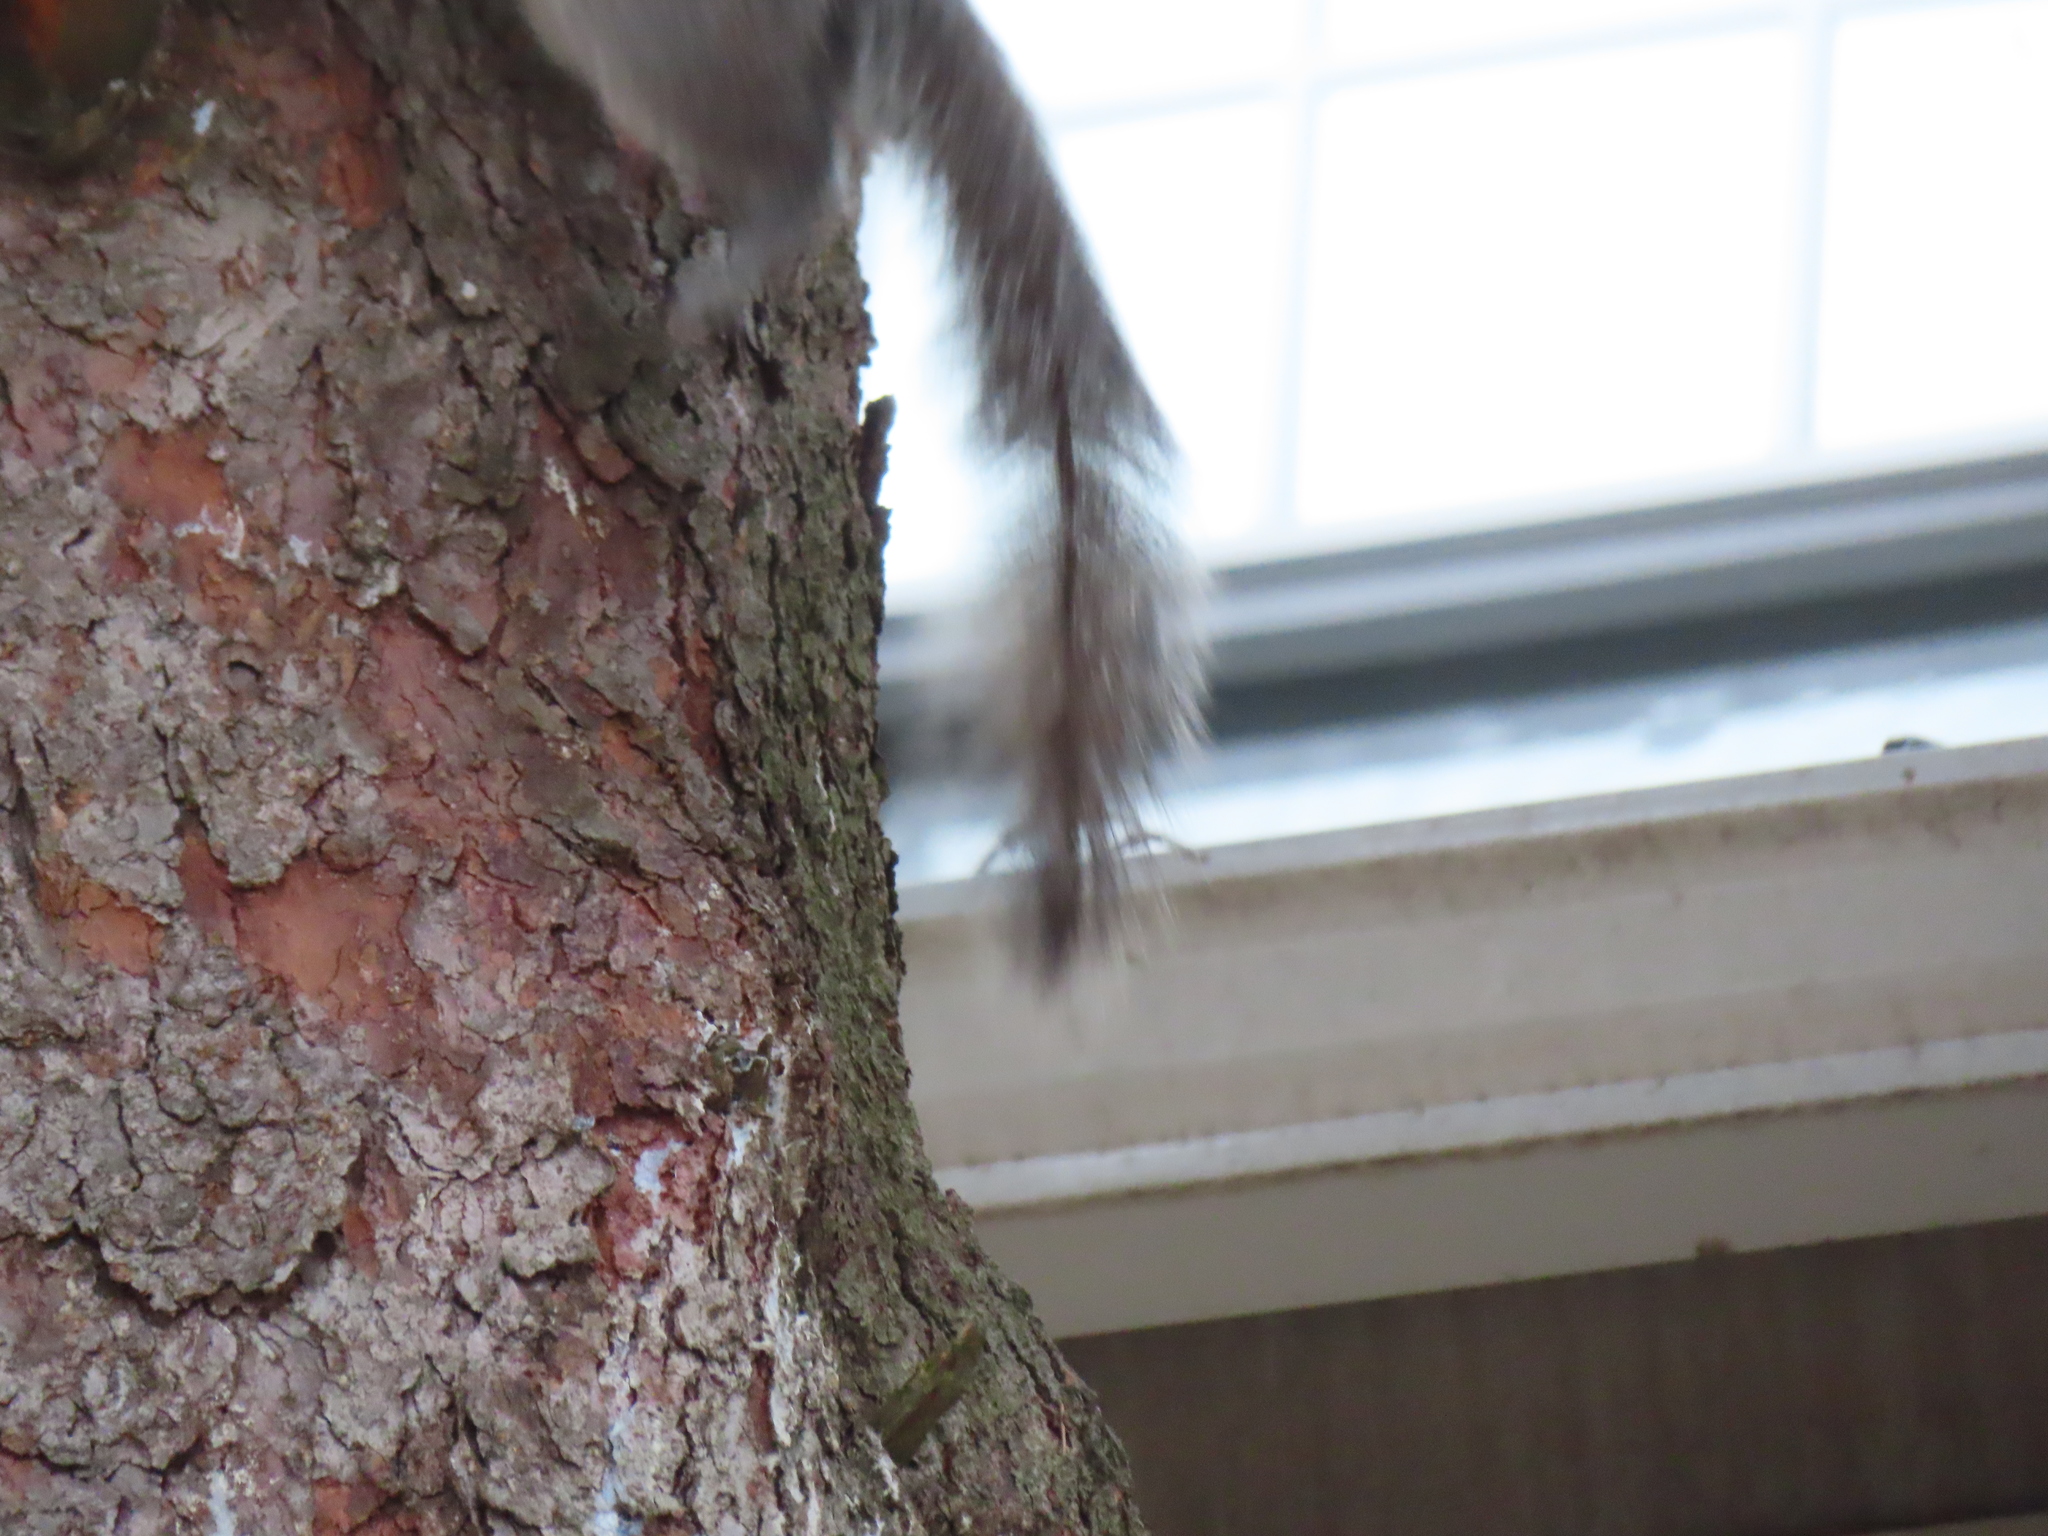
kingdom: Animalia
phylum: Chordata
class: Mammalia
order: Rodentia
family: Sciuridae
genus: Sciurus
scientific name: Sciurus carolinensis
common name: Eastern gray squirrel
